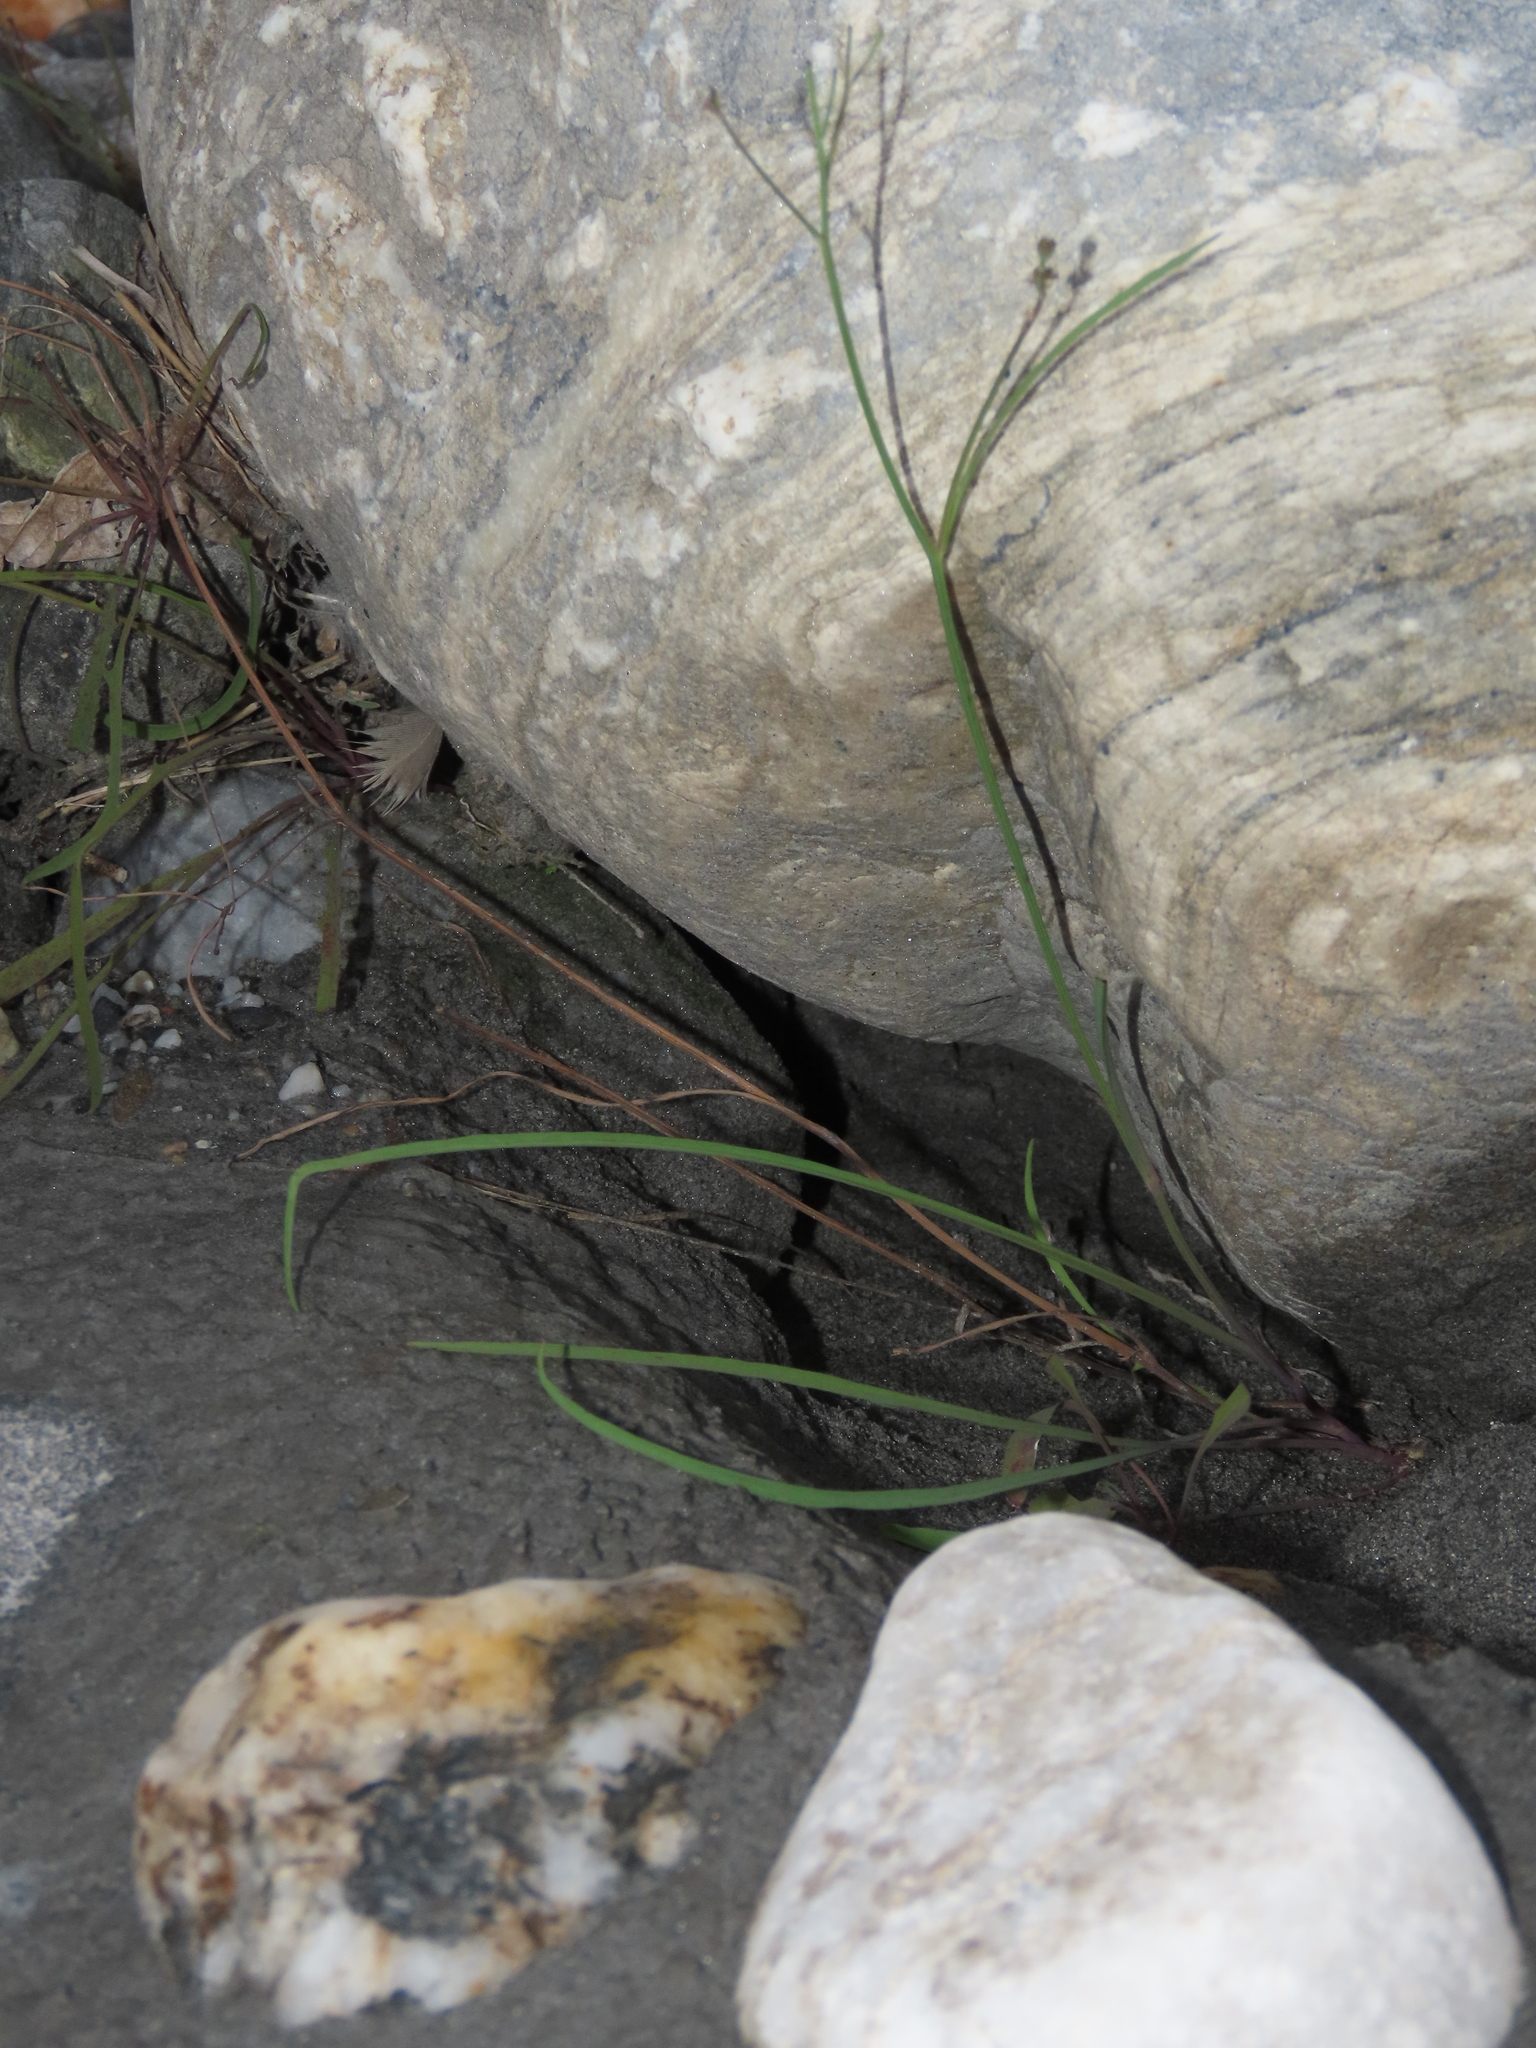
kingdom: Plantae
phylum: Tracheophyta
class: Magnoliopsida
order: Asterales
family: Asteraceae
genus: Ixeris
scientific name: Ixeris tamagawaensis
